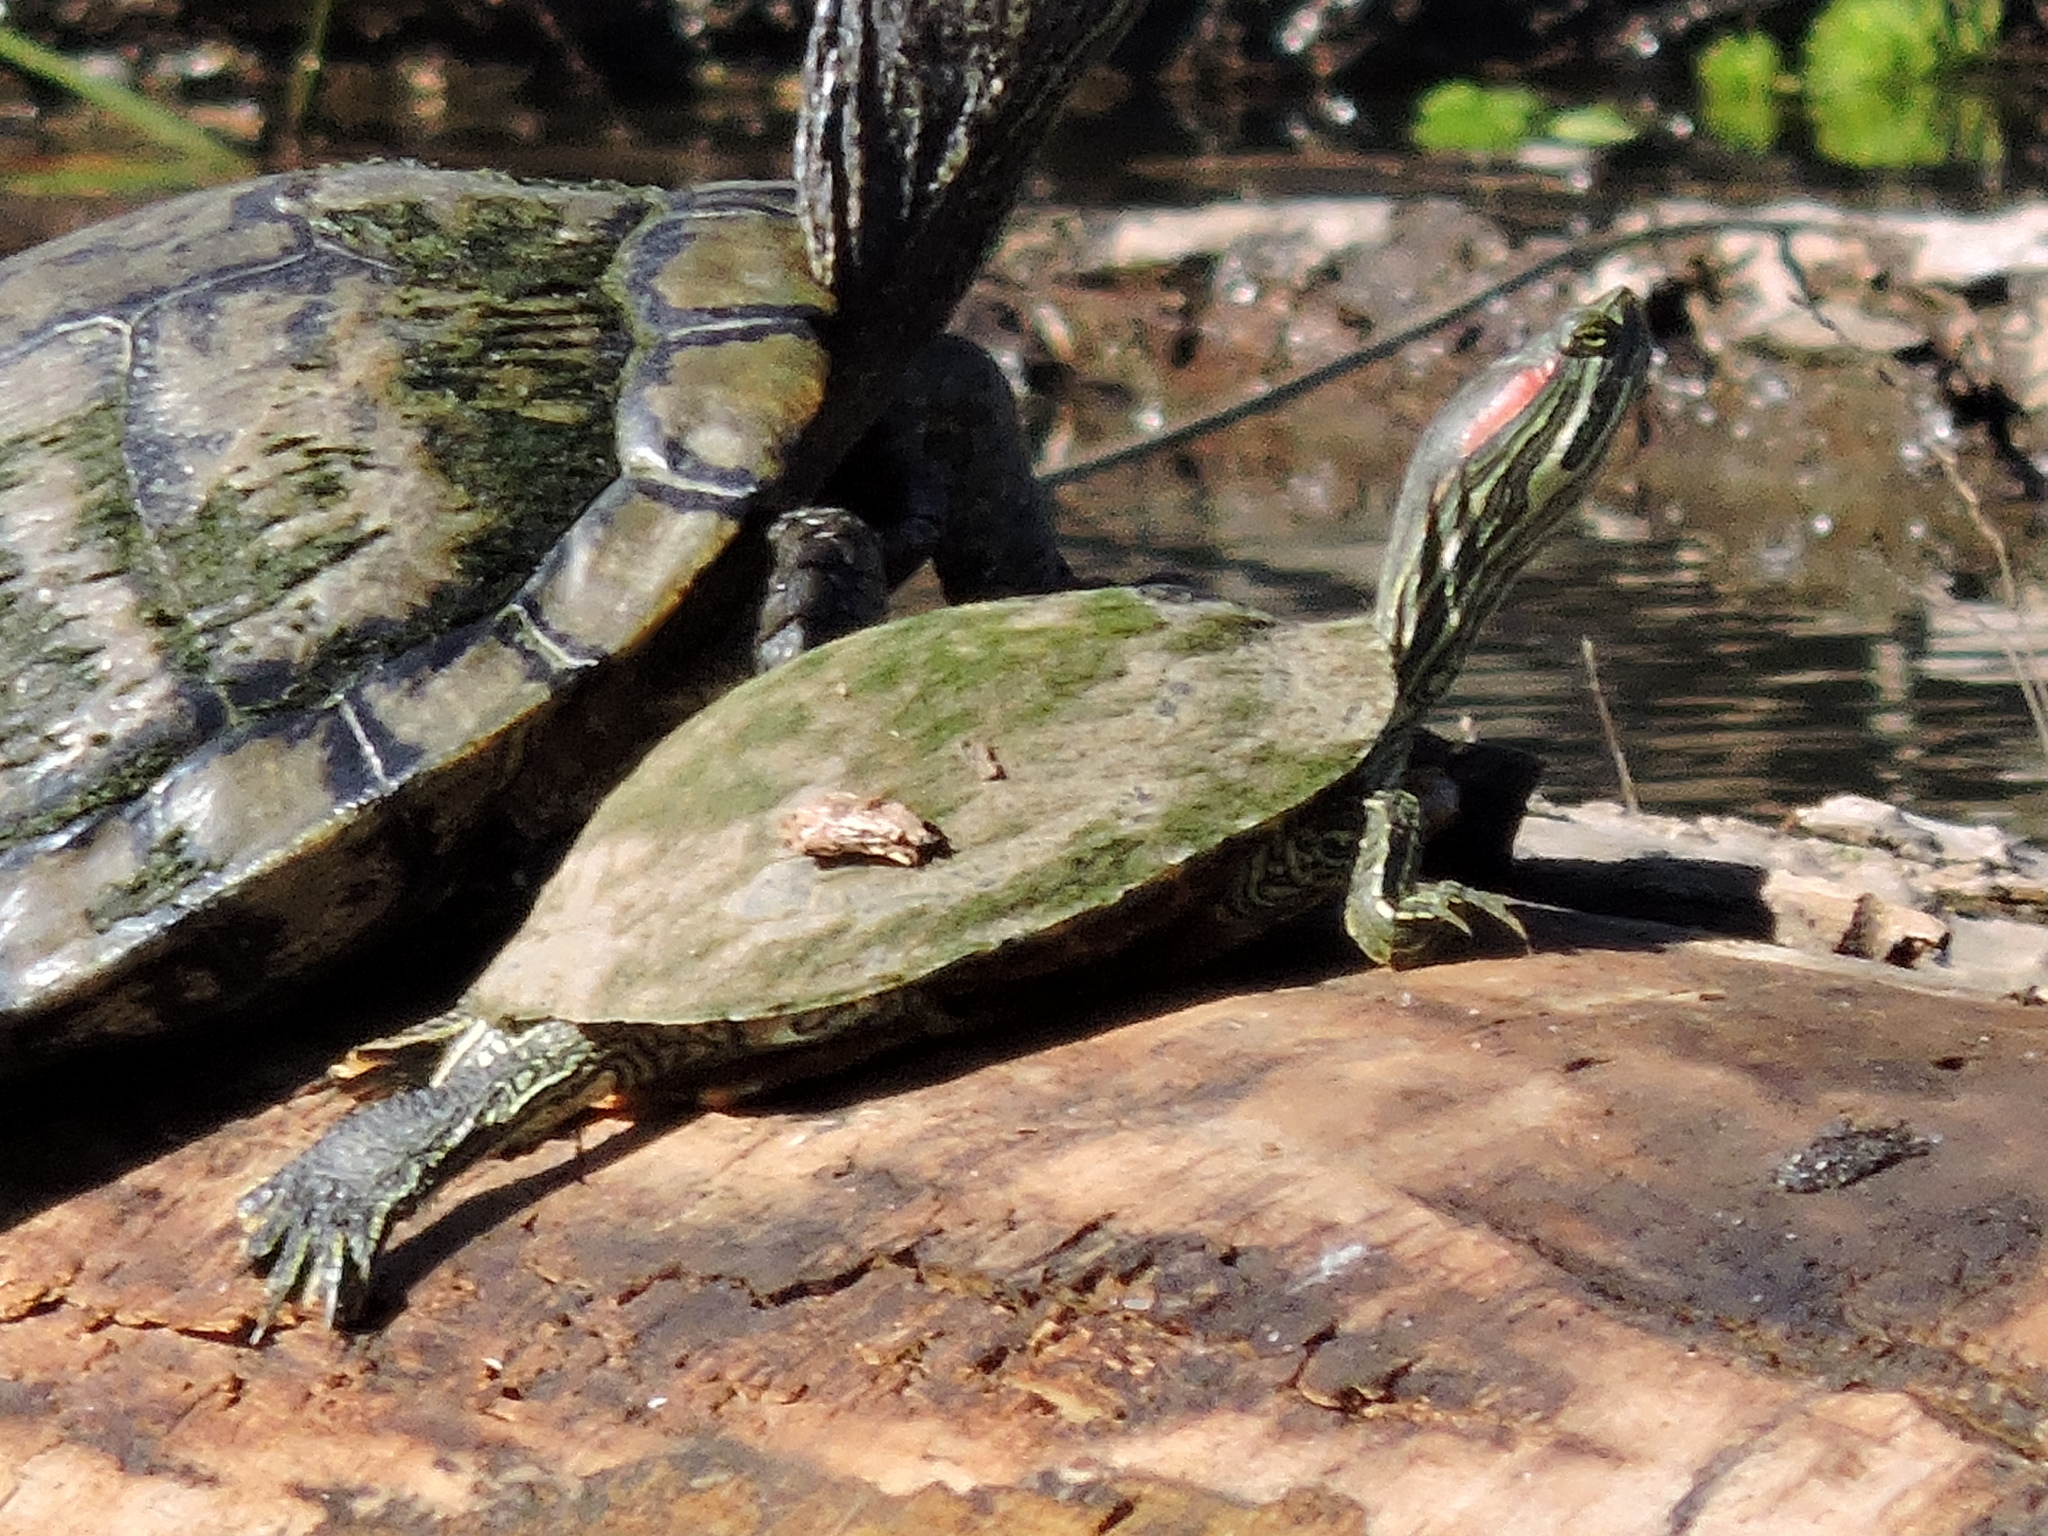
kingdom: Animalia
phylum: Chordata
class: Testudines
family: Emydidae
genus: Trachemys
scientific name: Trachemys scripta
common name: Slider
